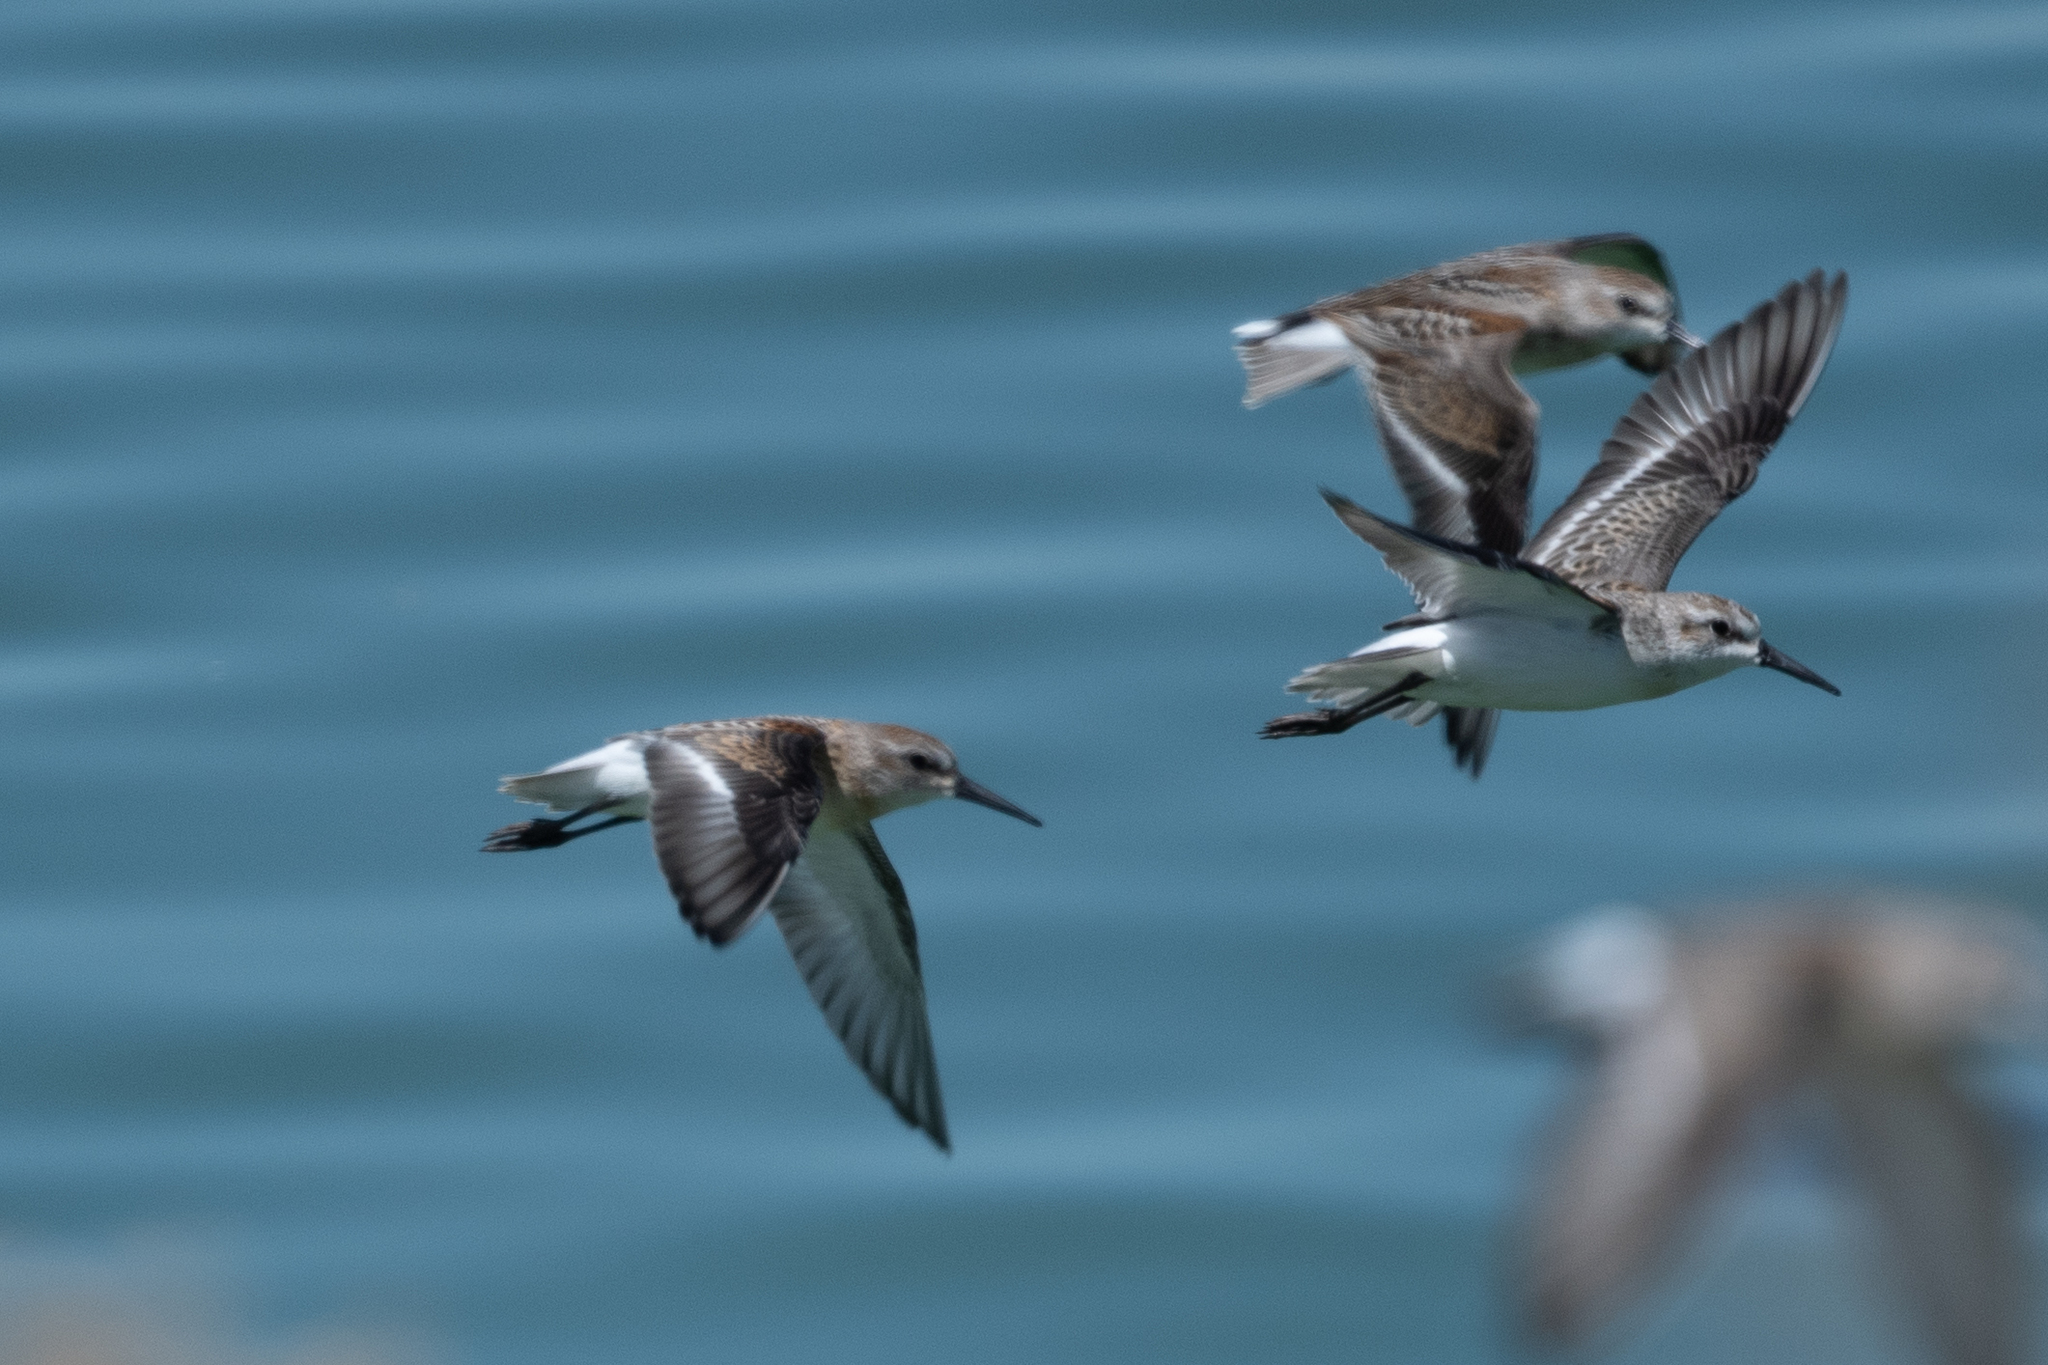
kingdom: Animalia
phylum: Chordata
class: Aves
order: Charadriiformes
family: Scolopacidae
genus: Calidris
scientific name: Calidris mauri
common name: Western sandpiper
